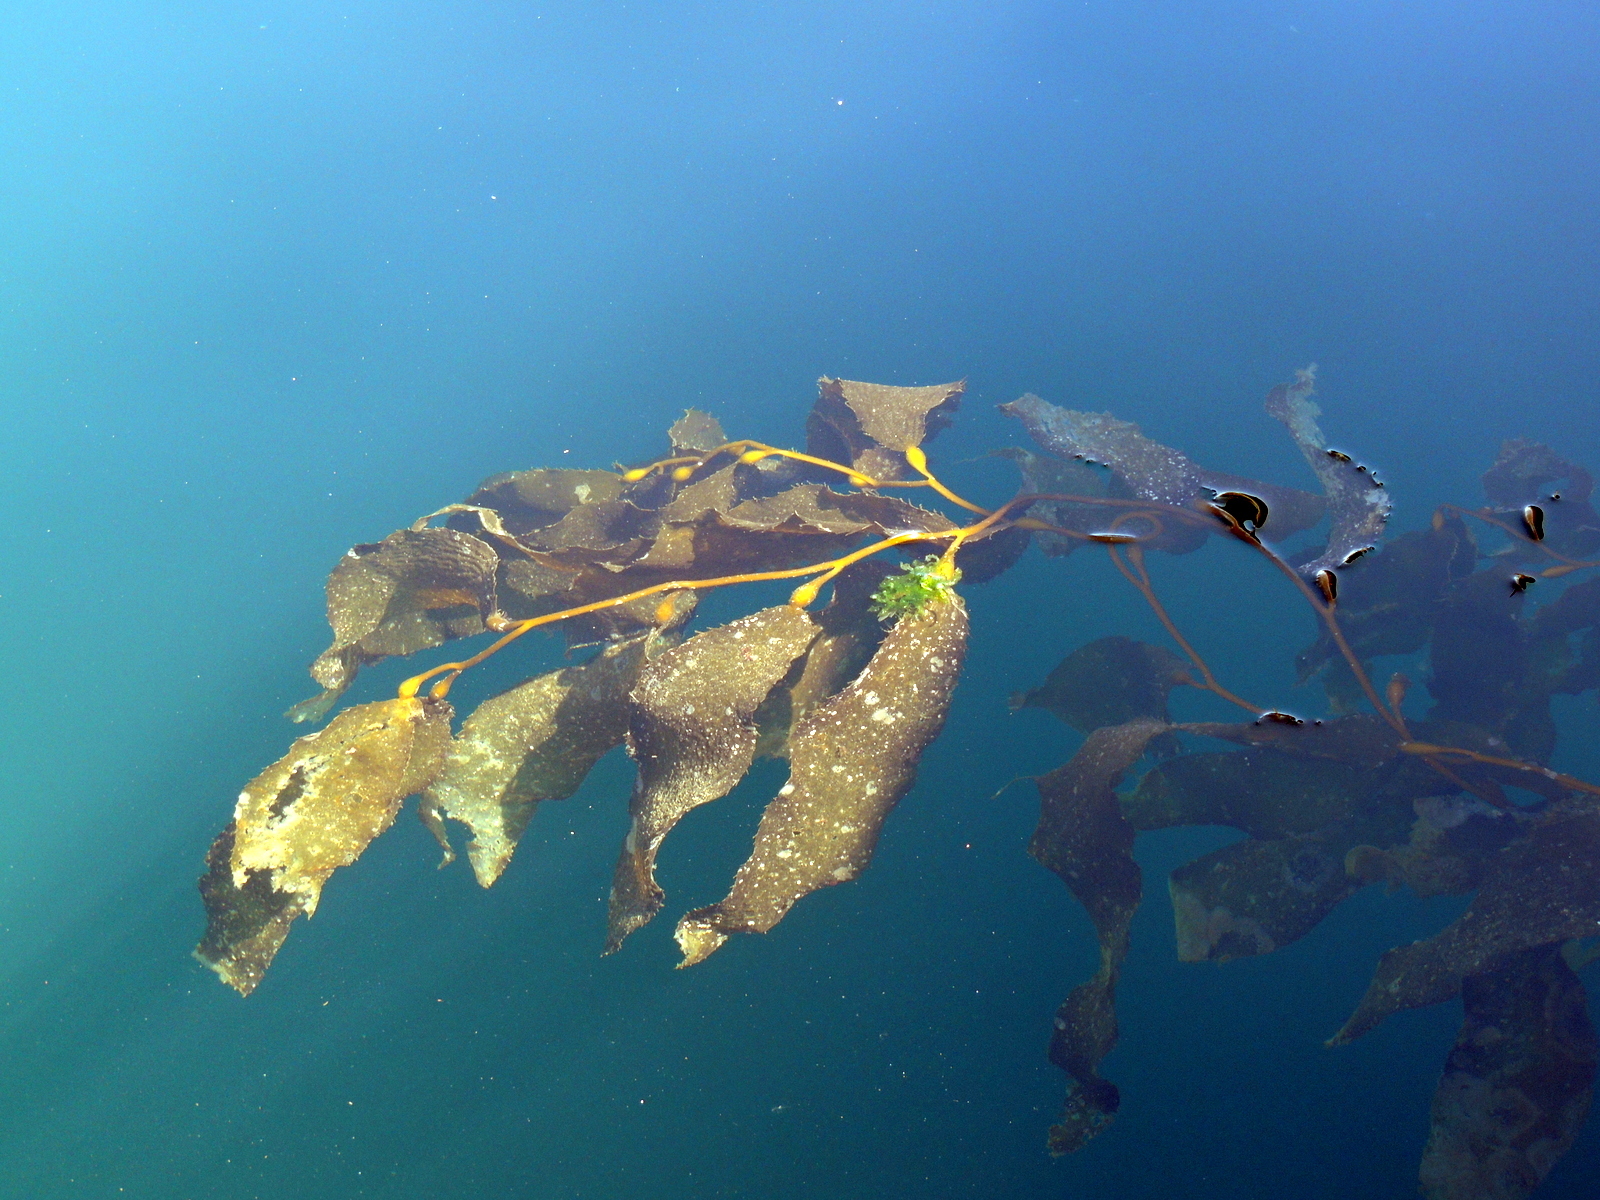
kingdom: Chromista
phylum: Ochrophyta
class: Phaeophyceae
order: Laminariales
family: Laminariaceae
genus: Macrocystis
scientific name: Macrocystis pyrifera
